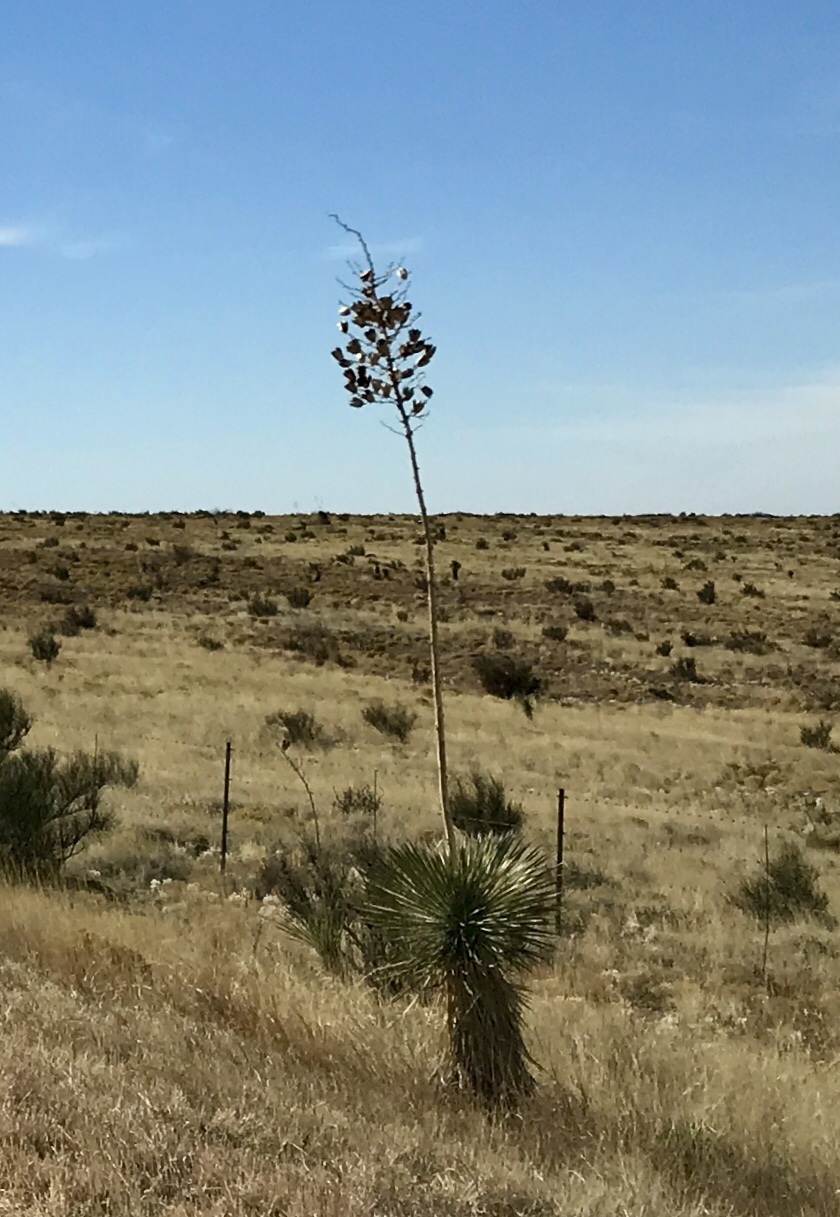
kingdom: Plantae
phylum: Tracheophyta
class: Liliopsida
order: Asparagales
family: Asparagaceae
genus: Yucca
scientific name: Yucca elata
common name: Palmella
